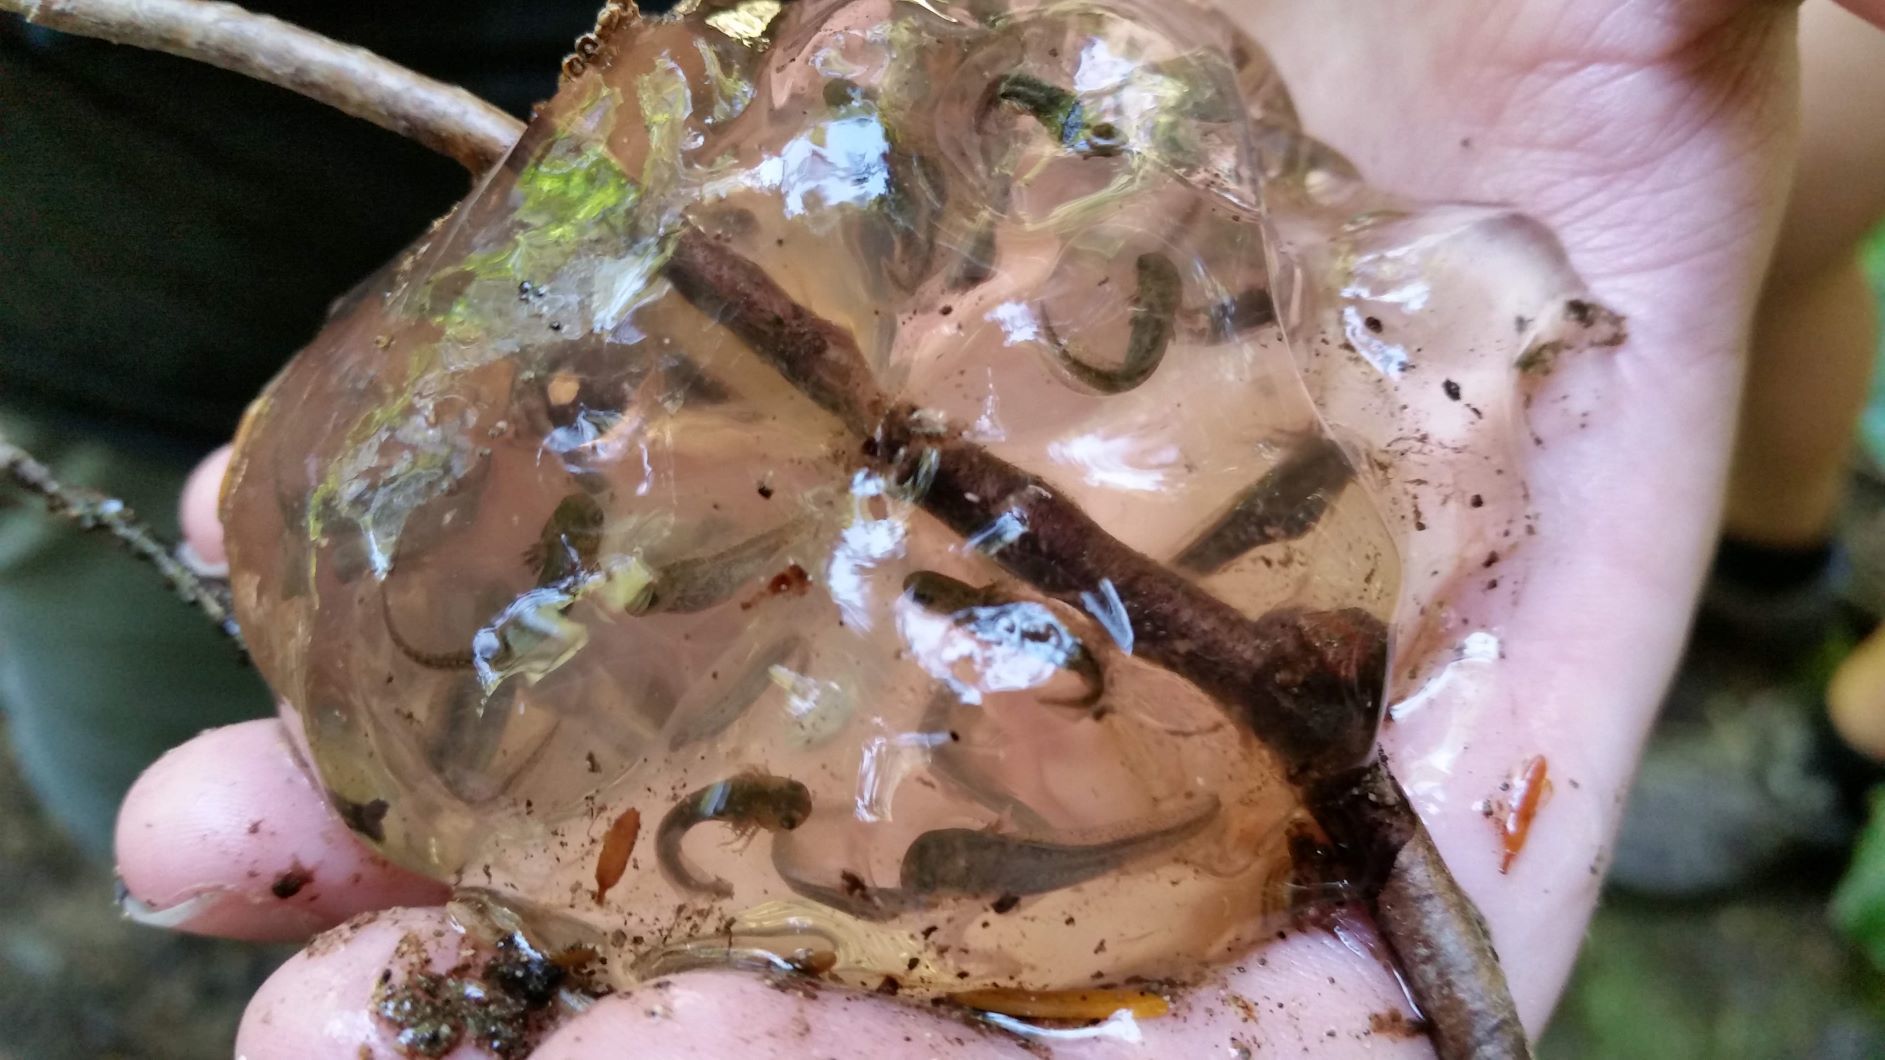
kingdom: Animalia
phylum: Chordata
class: Amphibia
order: Caudata
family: Ambystomatidae
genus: Ambystoma
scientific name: Ambystoma gracile
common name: Northwestern salamander
